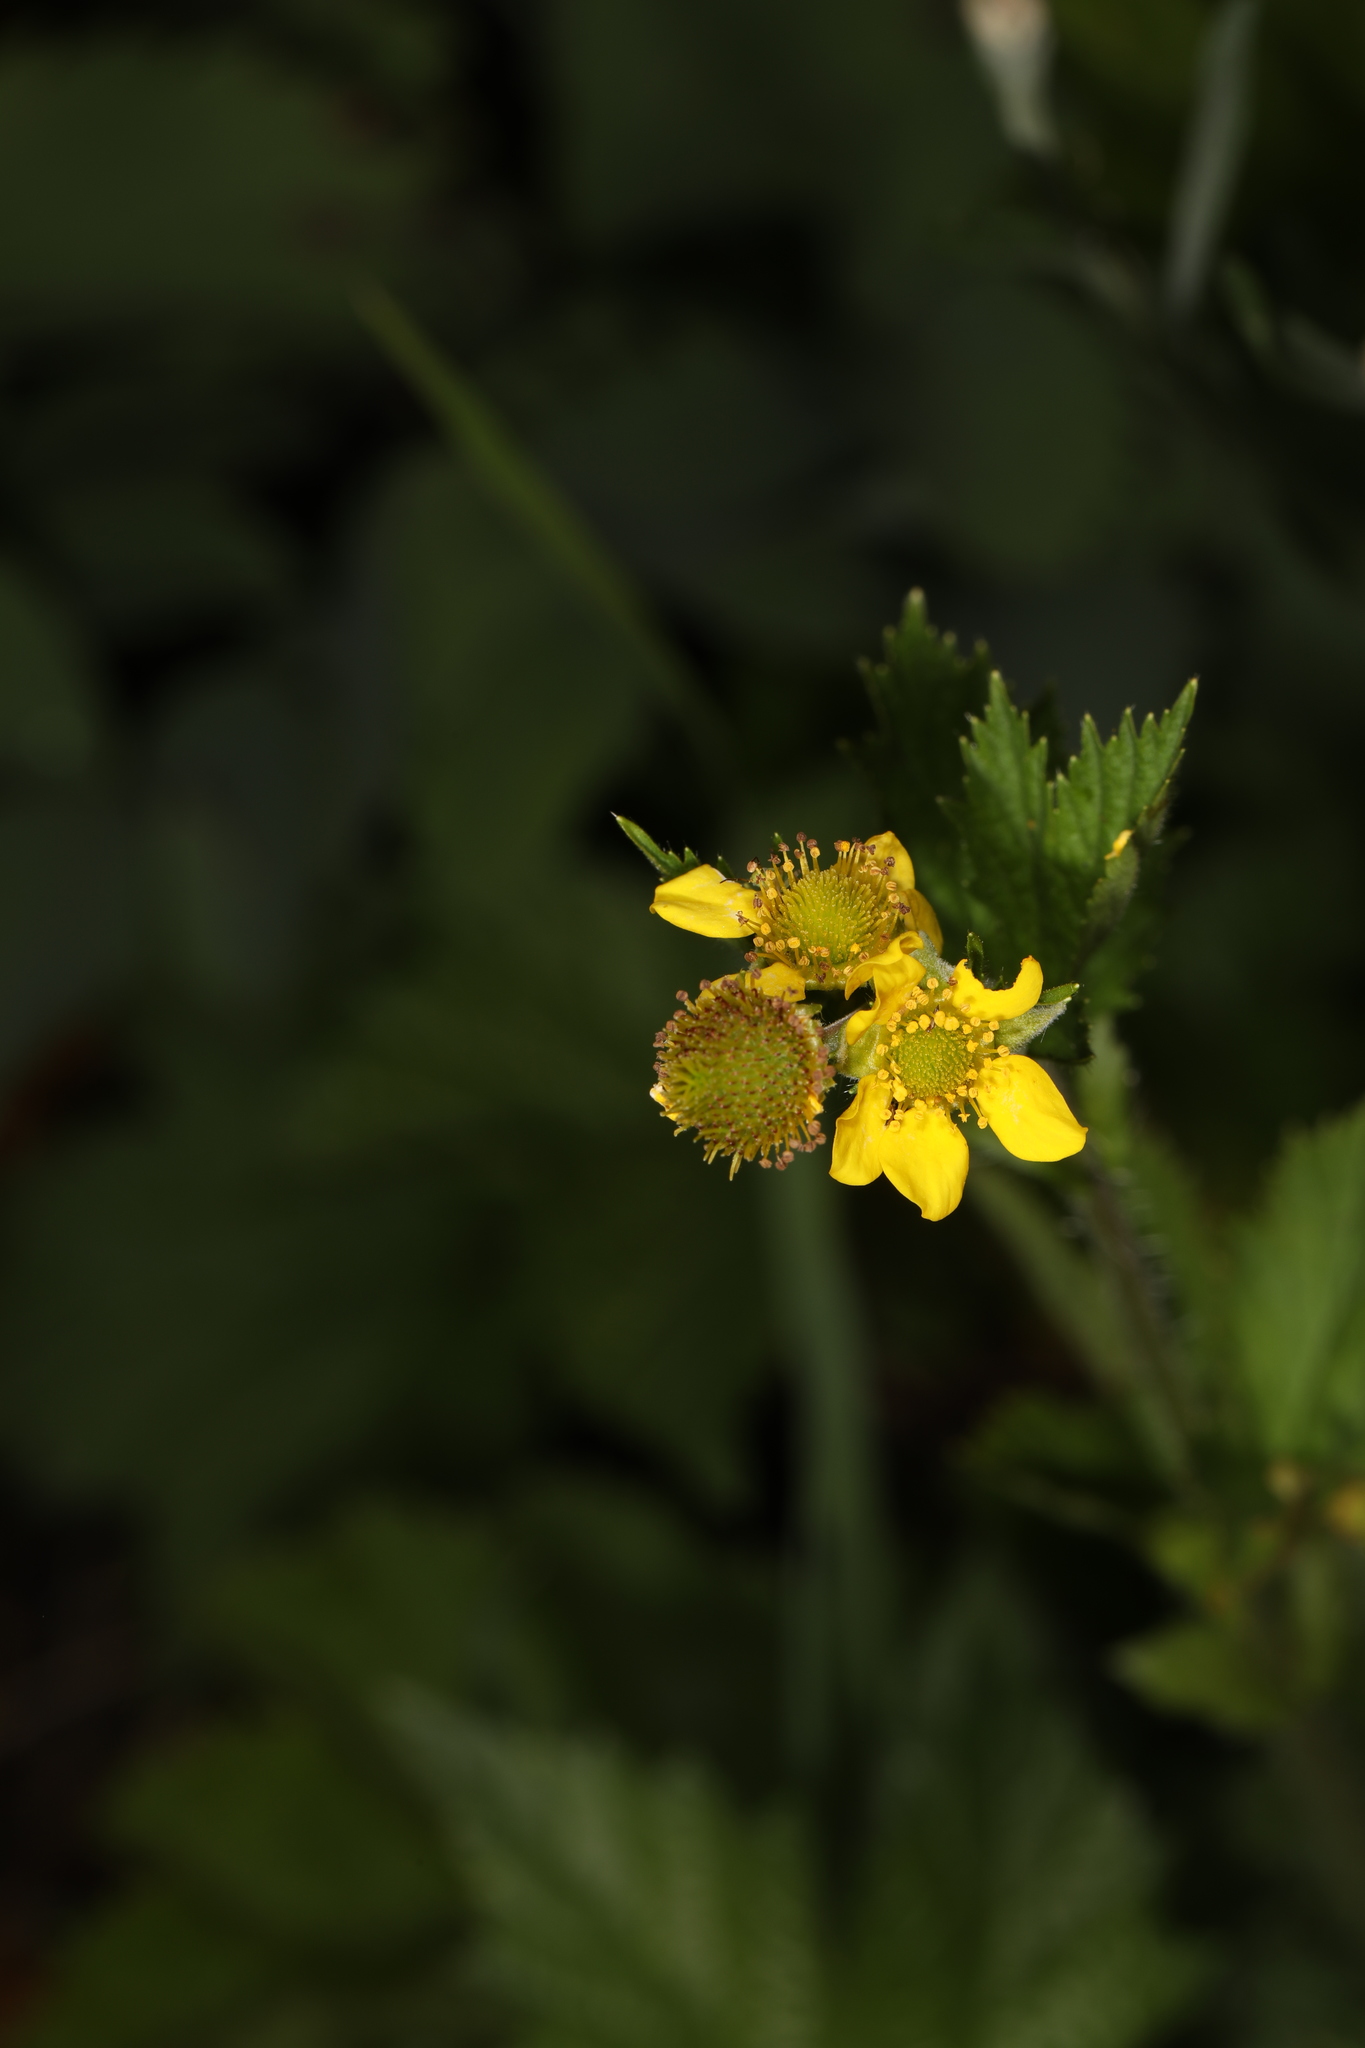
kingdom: Plantae
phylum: Tracheophyta
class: Magnoliopsida
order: Rosales
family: Rosaceae
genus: Geum
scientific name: Geum aleppicum
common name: Yellow avens
